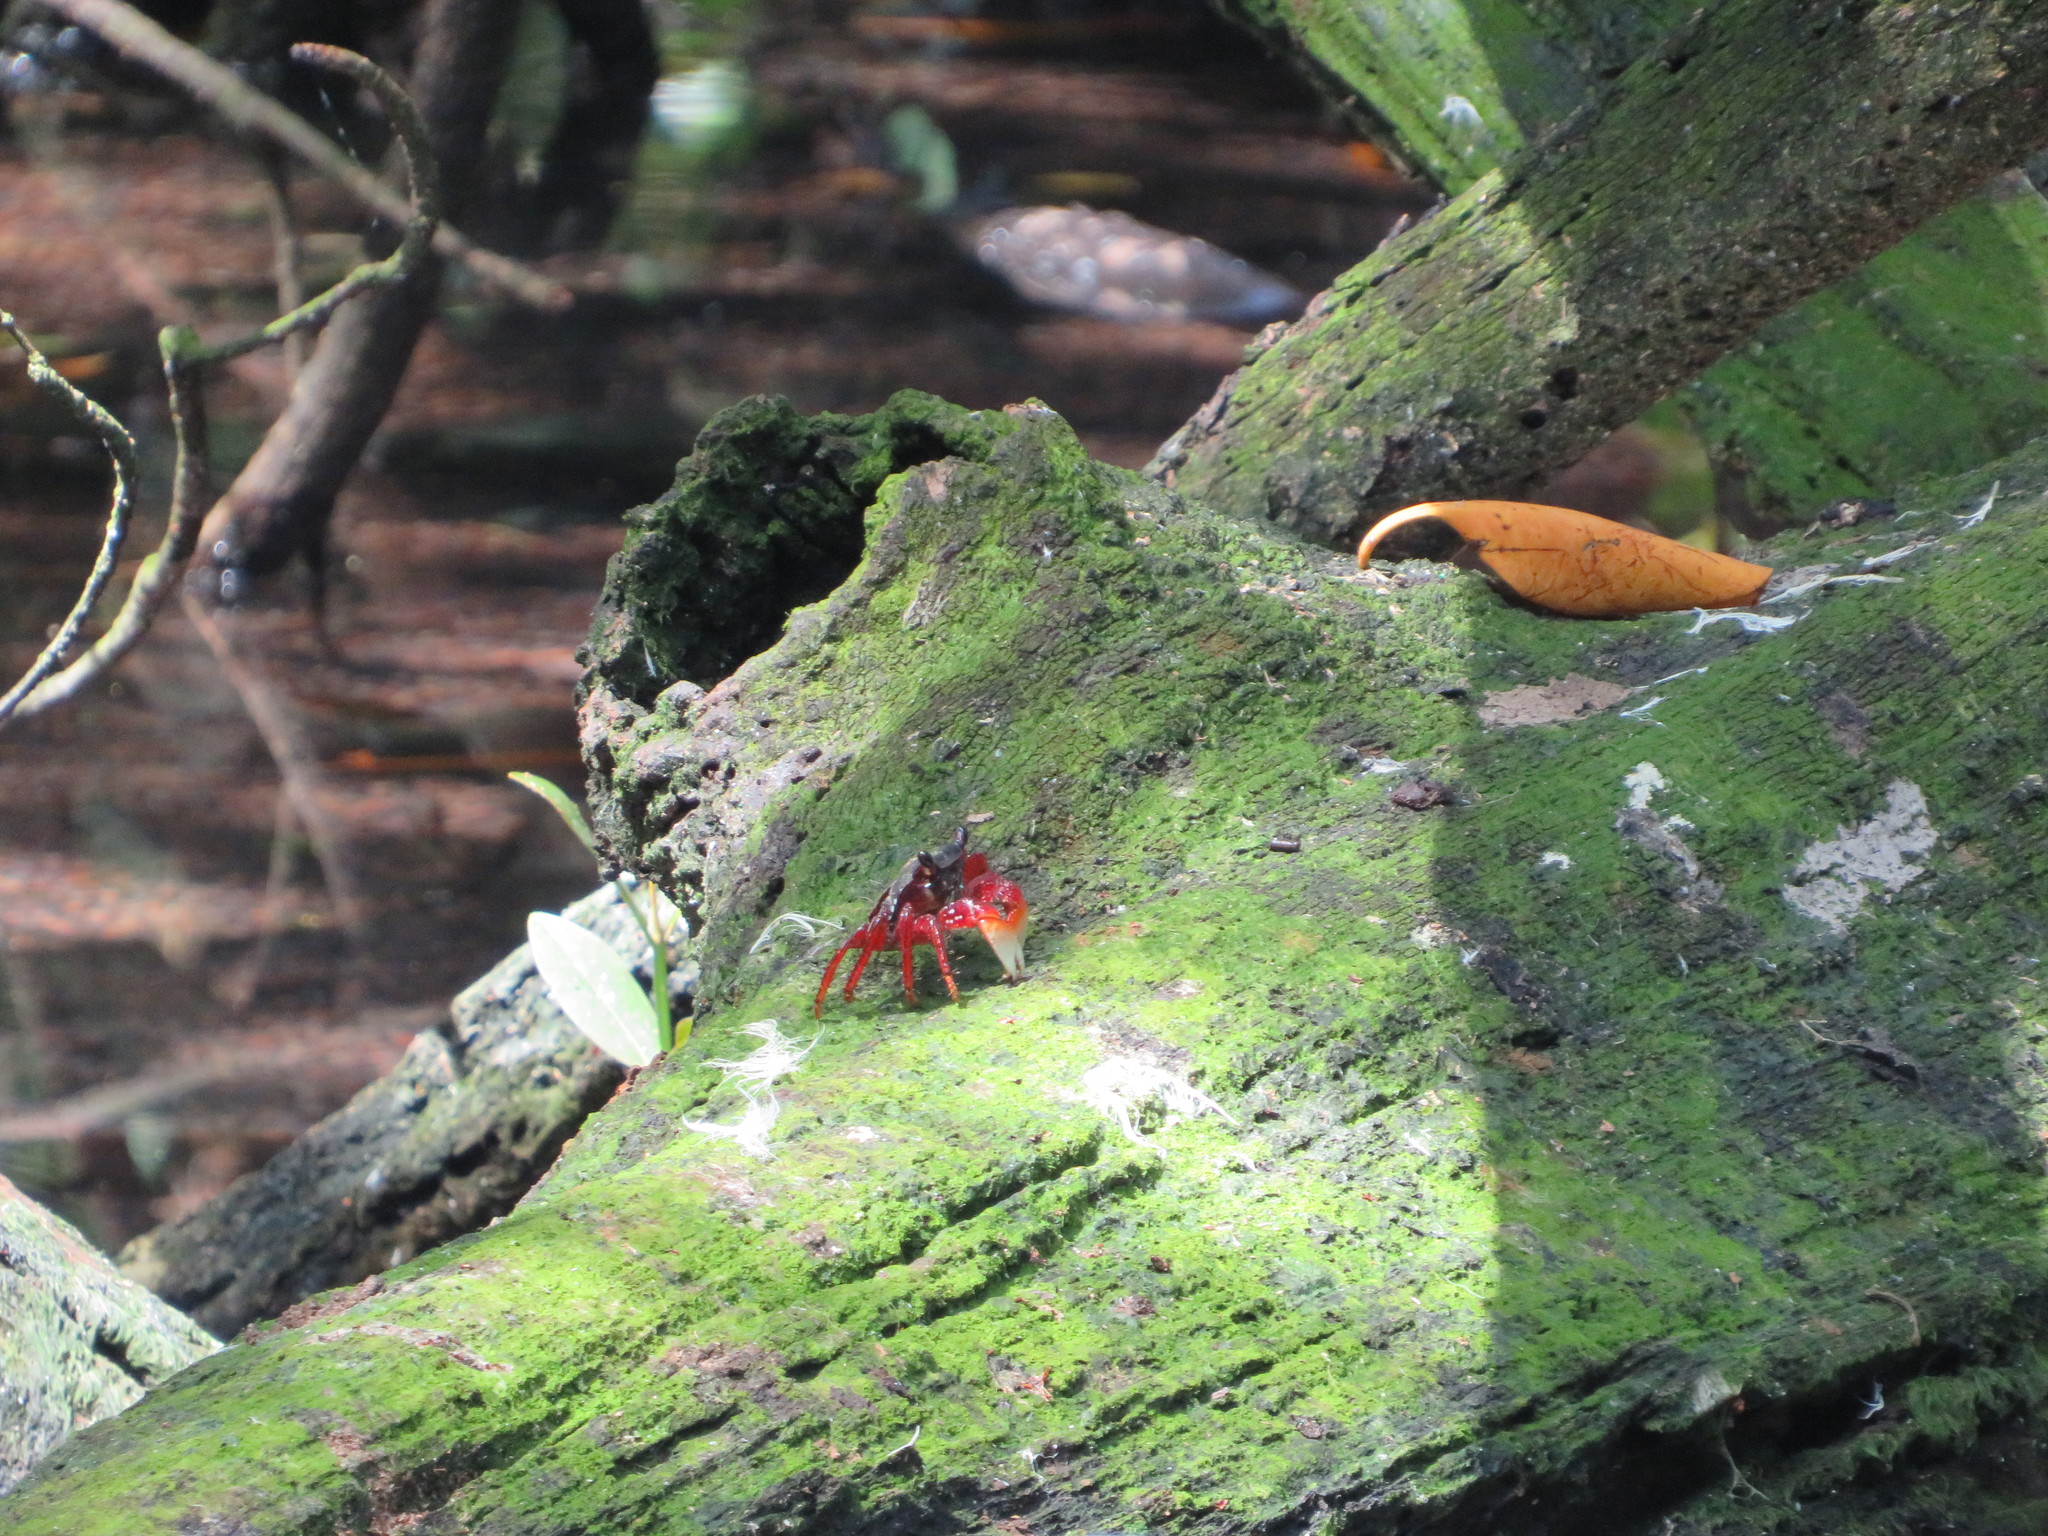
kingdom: Animalia
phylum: Arthropoda
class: Malacostraca
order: Decapoda
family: Grapsidae
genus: Goniopsis
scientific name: Goniopsis cruentata
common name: Mangrove crab
